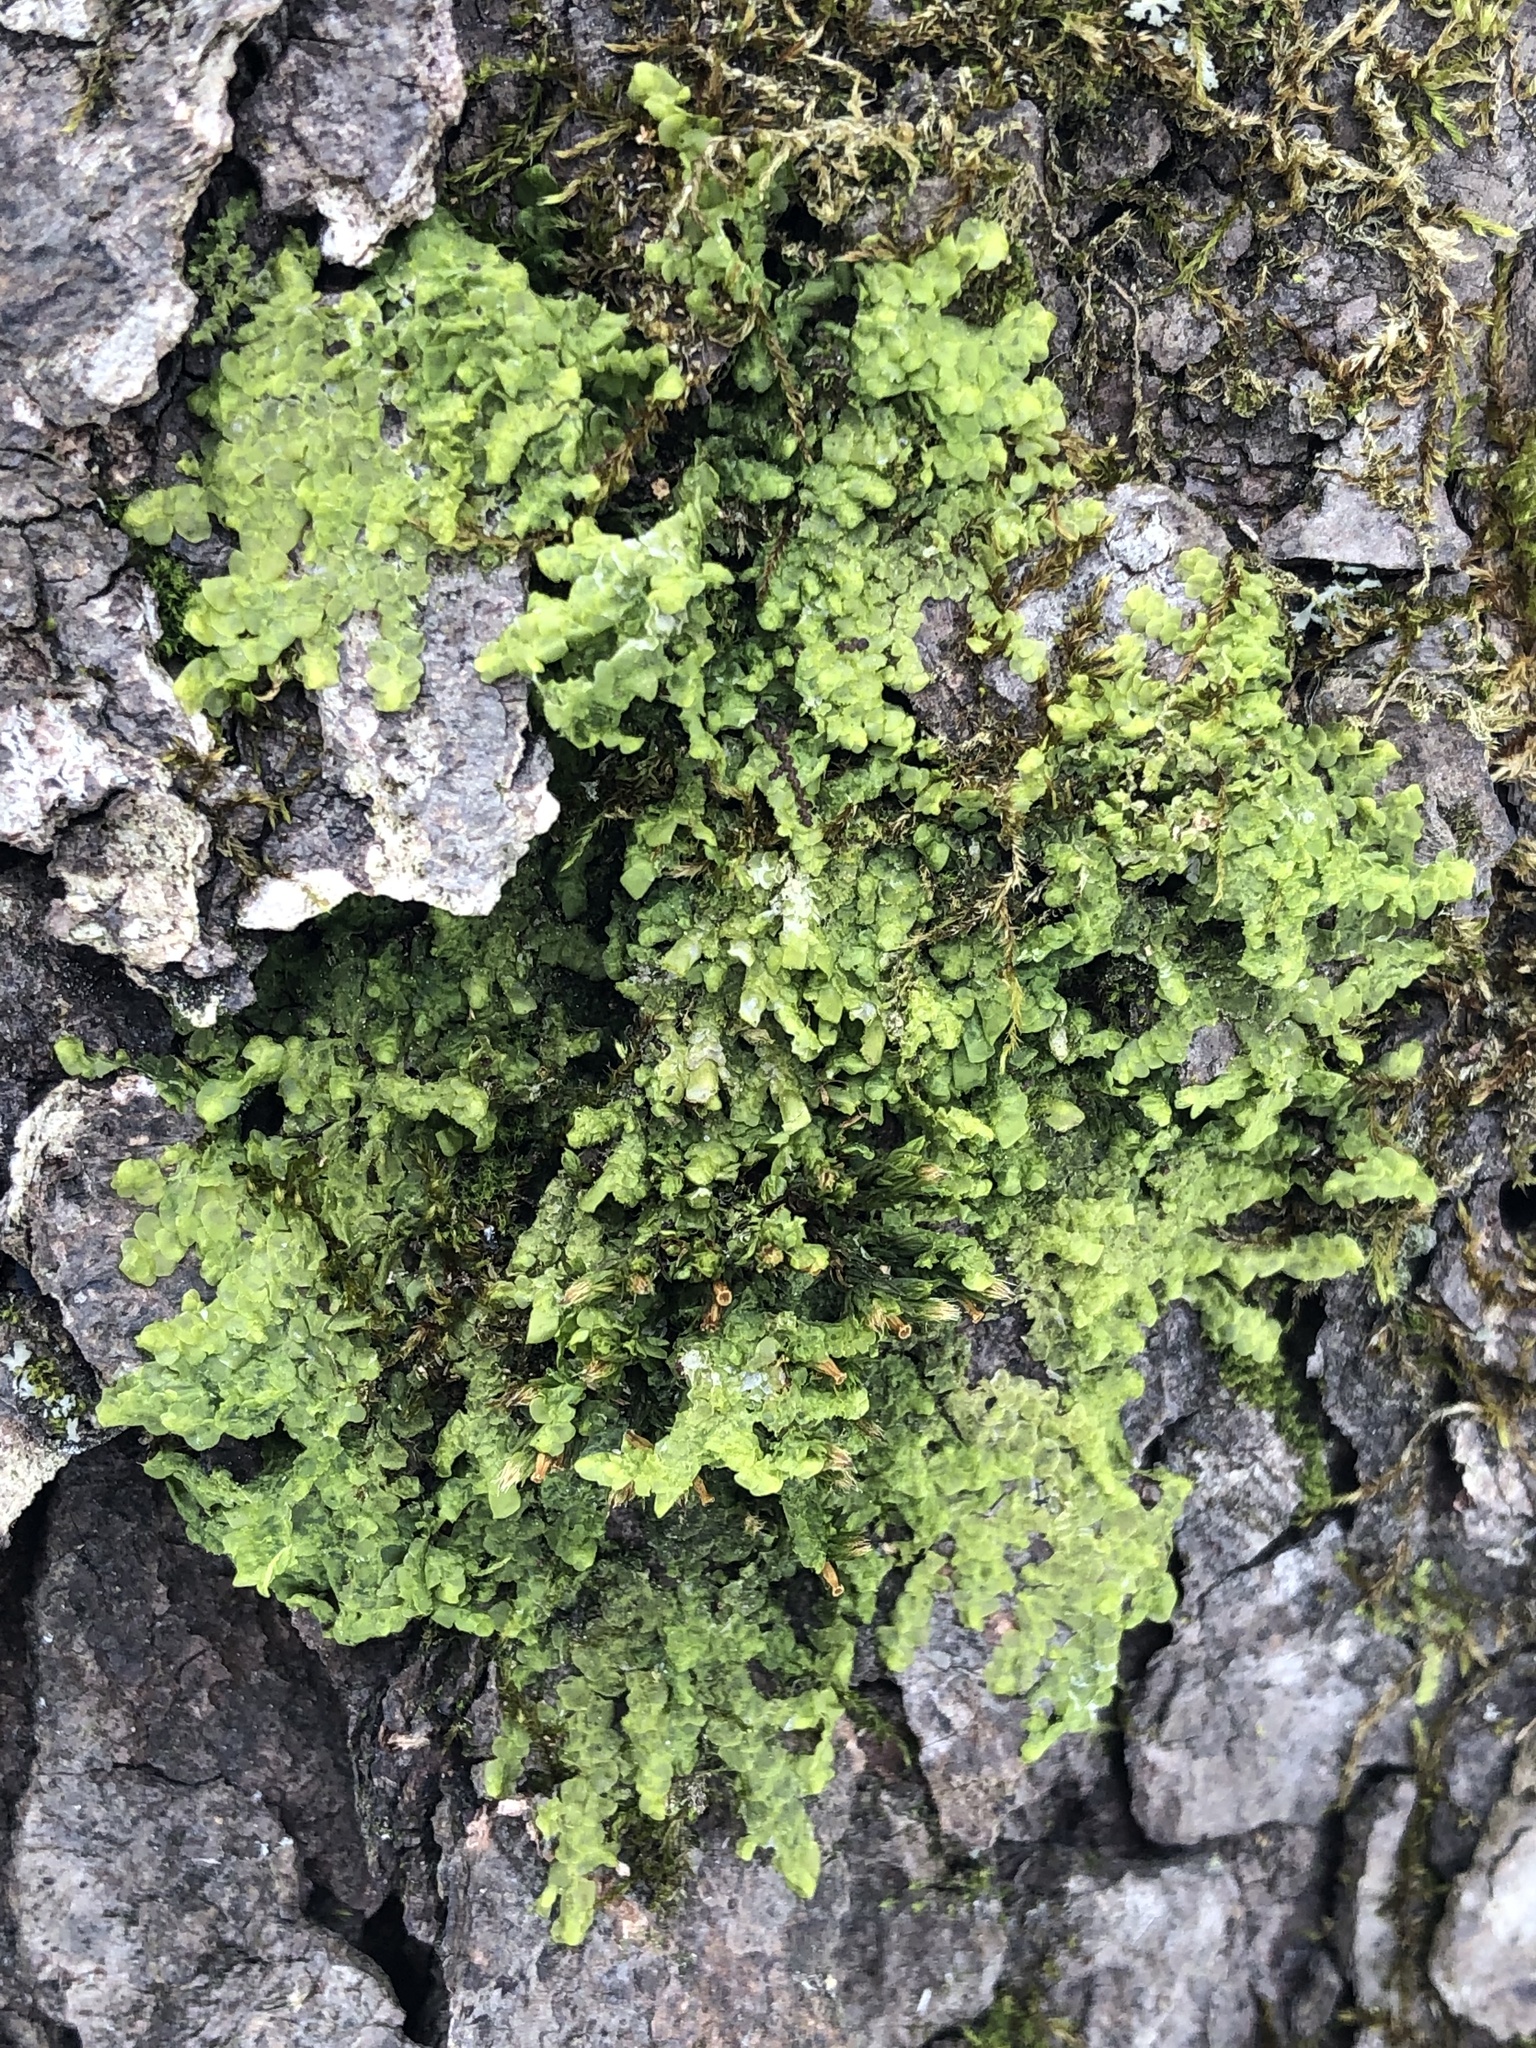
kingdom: Plantae
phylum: Marchantiophyta
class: Jungermanniopsida
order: Porellales
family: Radulaceae
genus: Radula
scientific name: Radula complanata
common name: Flat-leaved scalewort
